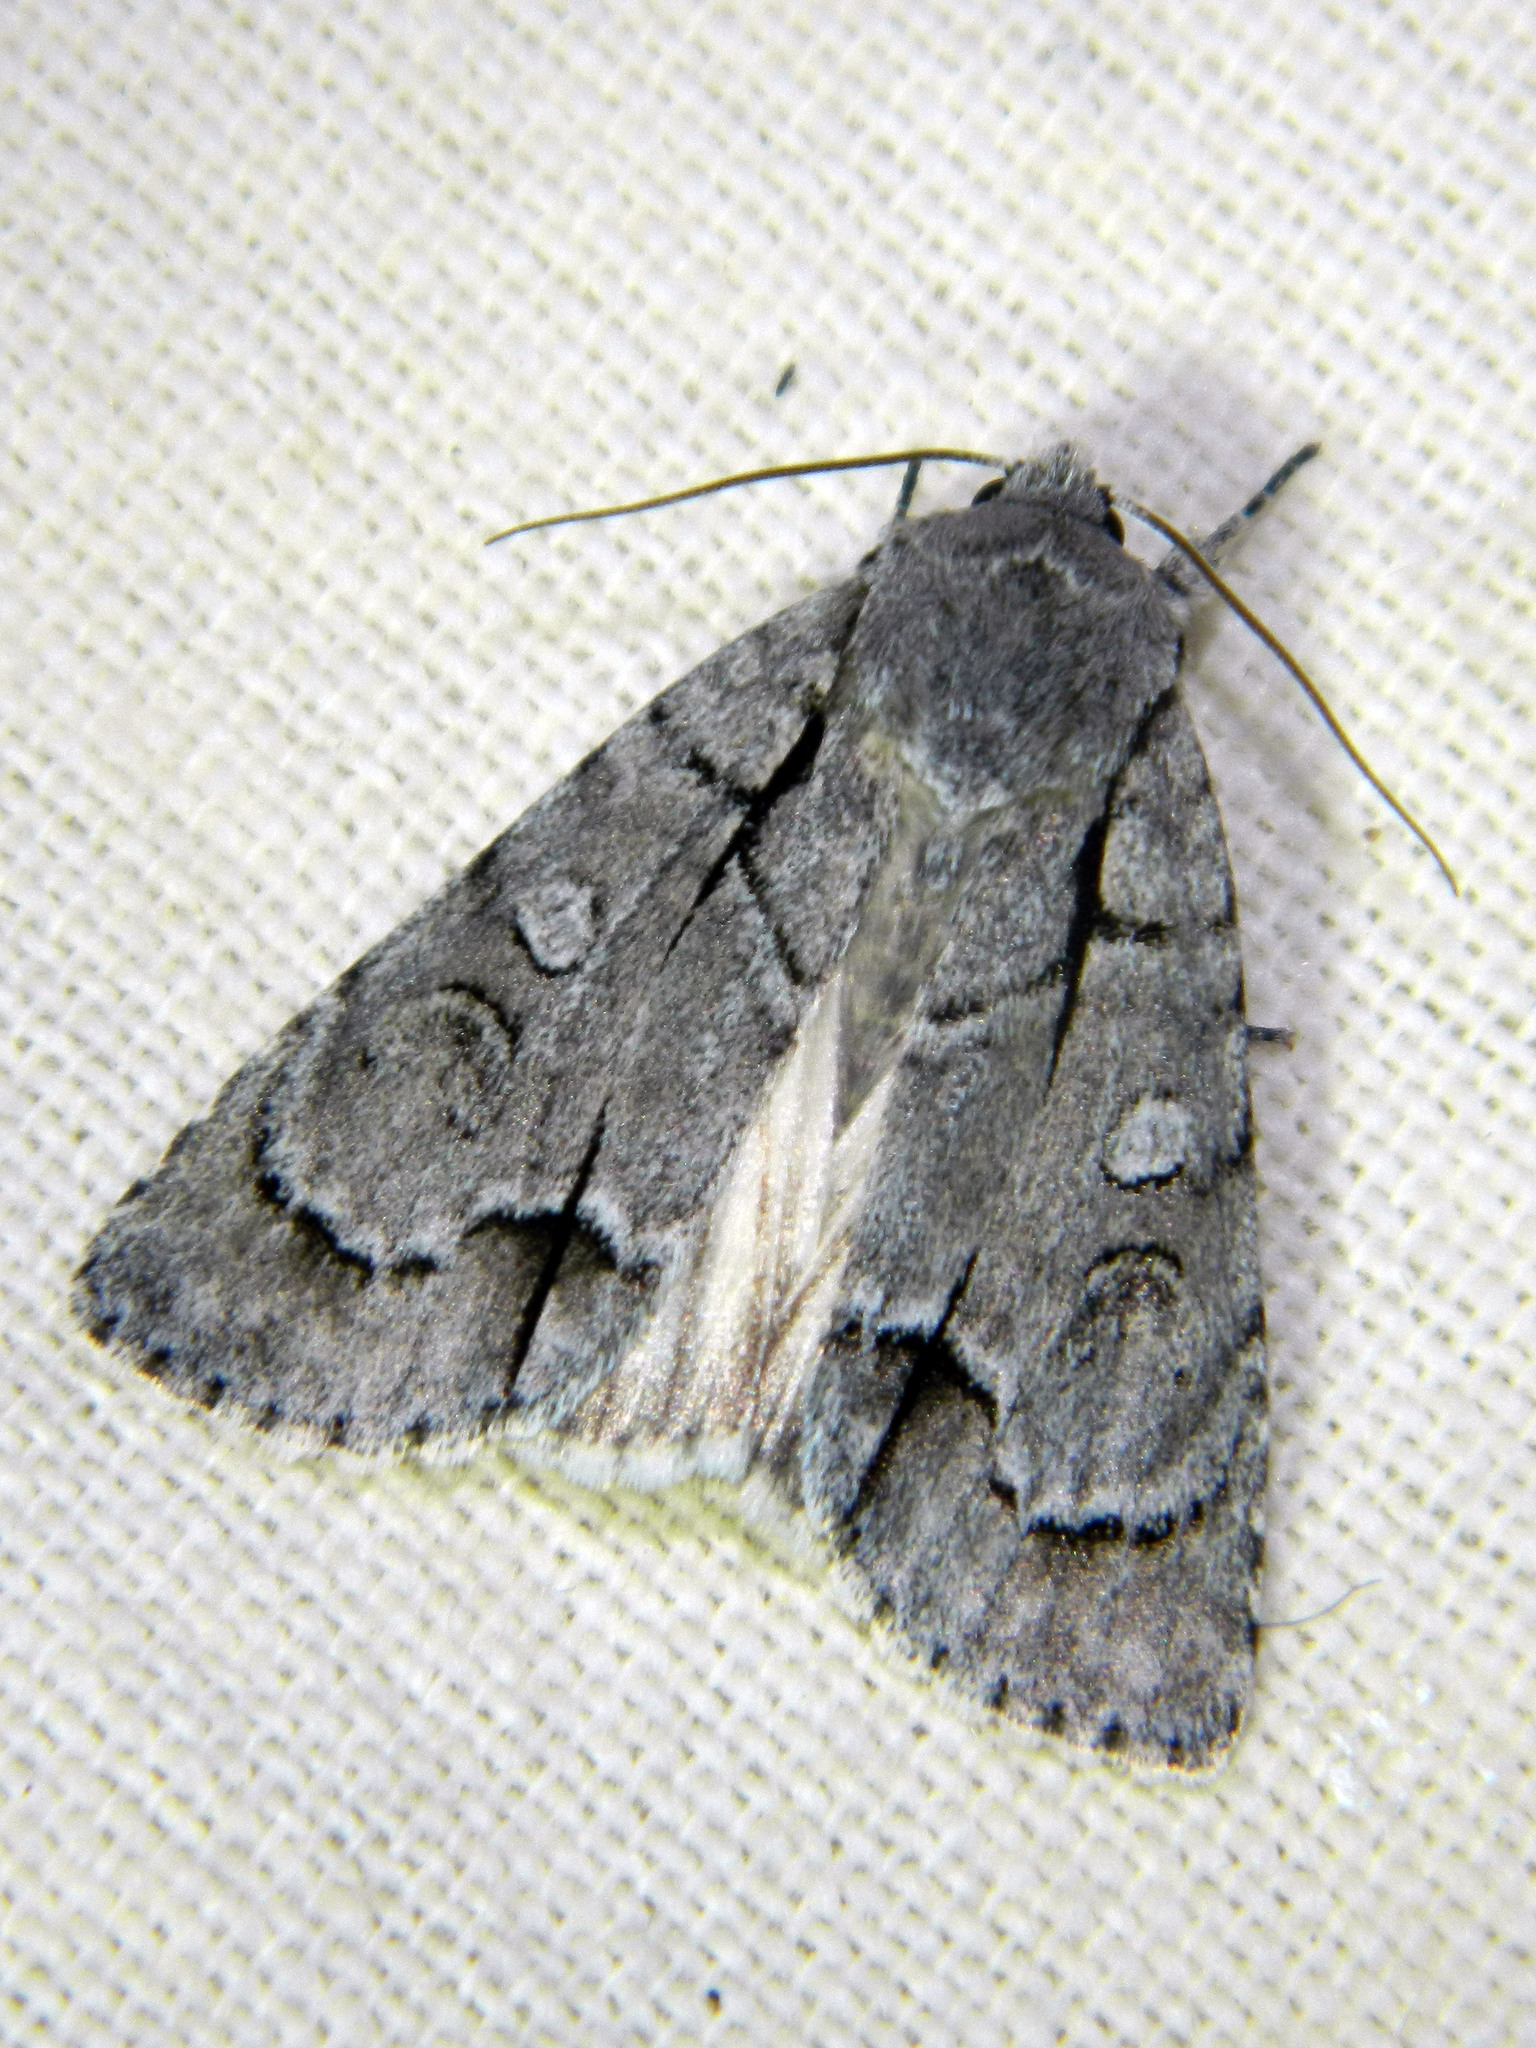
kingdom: Animalia
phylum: Arthropoda
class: Insecta
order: Lepidoptera
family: Noctuidae
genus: Acronicta
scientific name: Acronicta radcliffei
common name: Radcliffe's dagger
